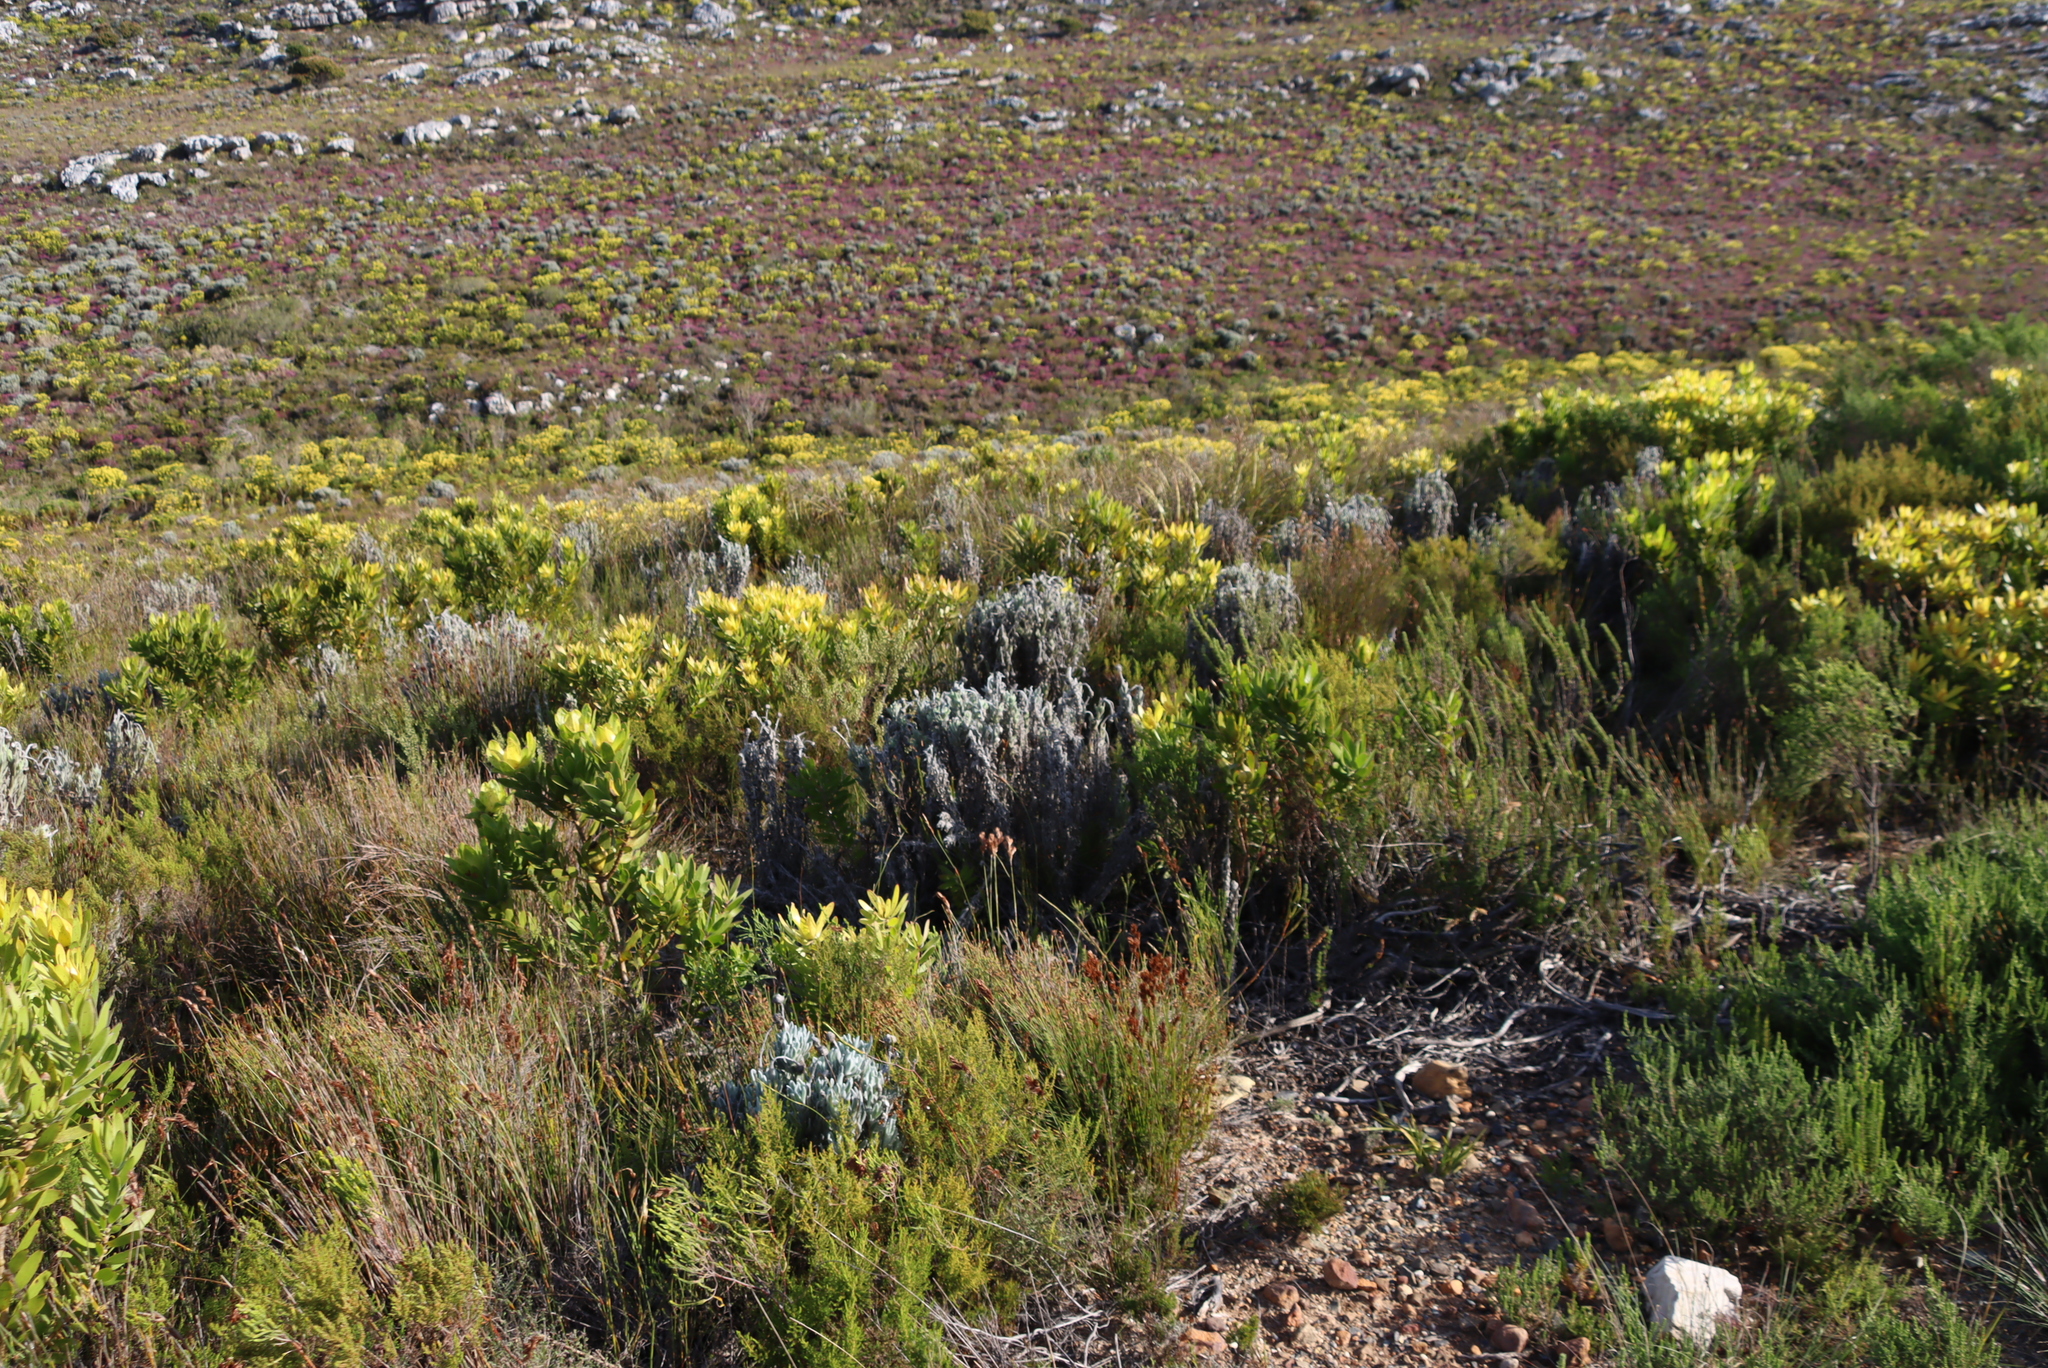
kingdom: Plantae
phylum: Tracheophyta
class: Magnoliopsida
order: Asterales
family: Asteraceae
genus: Syncarpha
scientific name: Syncarpha vestita
